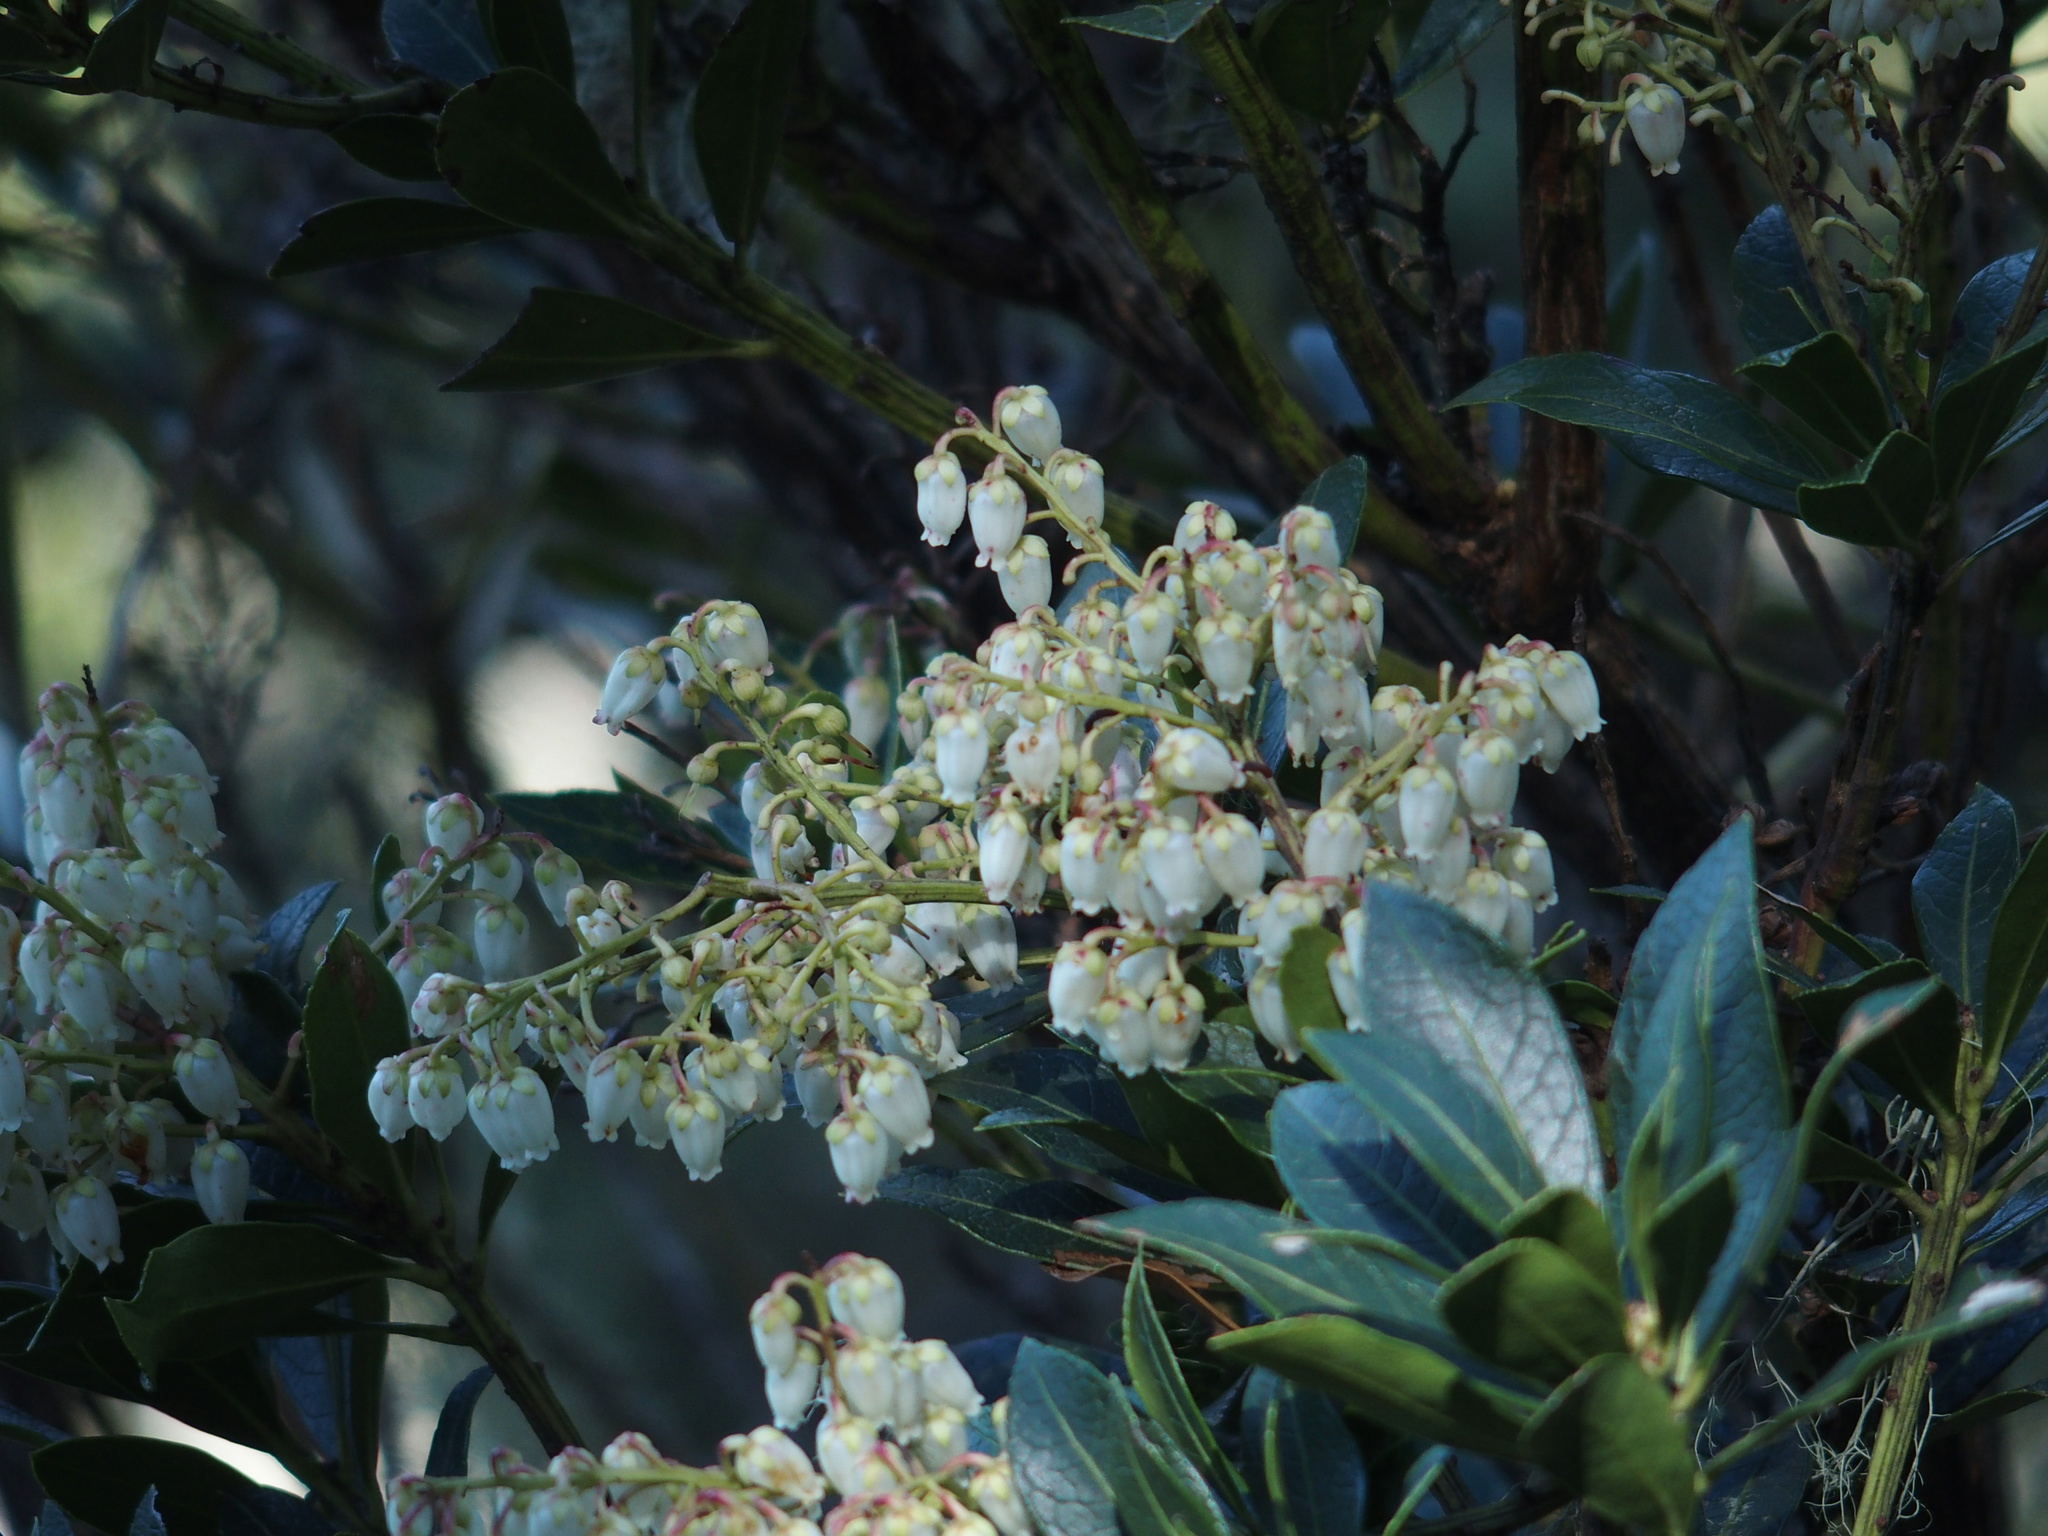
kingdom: Plantae
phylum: Tracheophyta
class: Magnoliopsida
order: Ericales
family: Ericaceae
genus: Pieris
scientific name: Pieris japonica
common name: Japanese pieris
